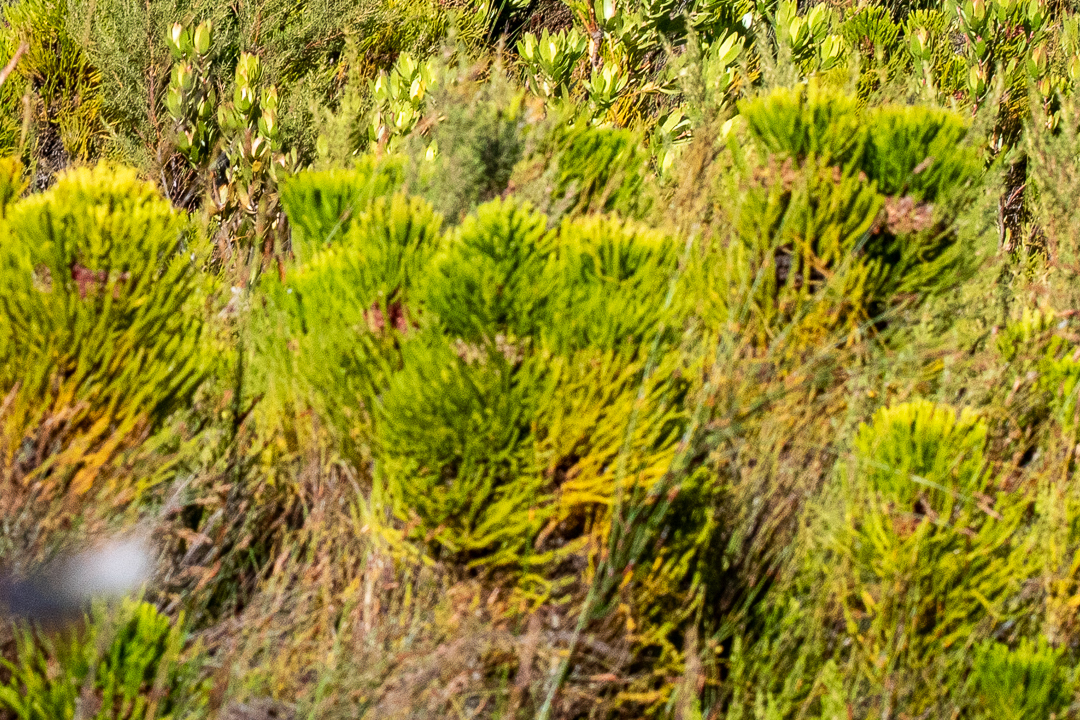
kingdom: Plantae
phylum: Tracheophyta
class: Magnoliopsida
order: Bruniales
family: Bruniaceae
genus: Berzelia
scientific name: Berzelia alopecurioides
